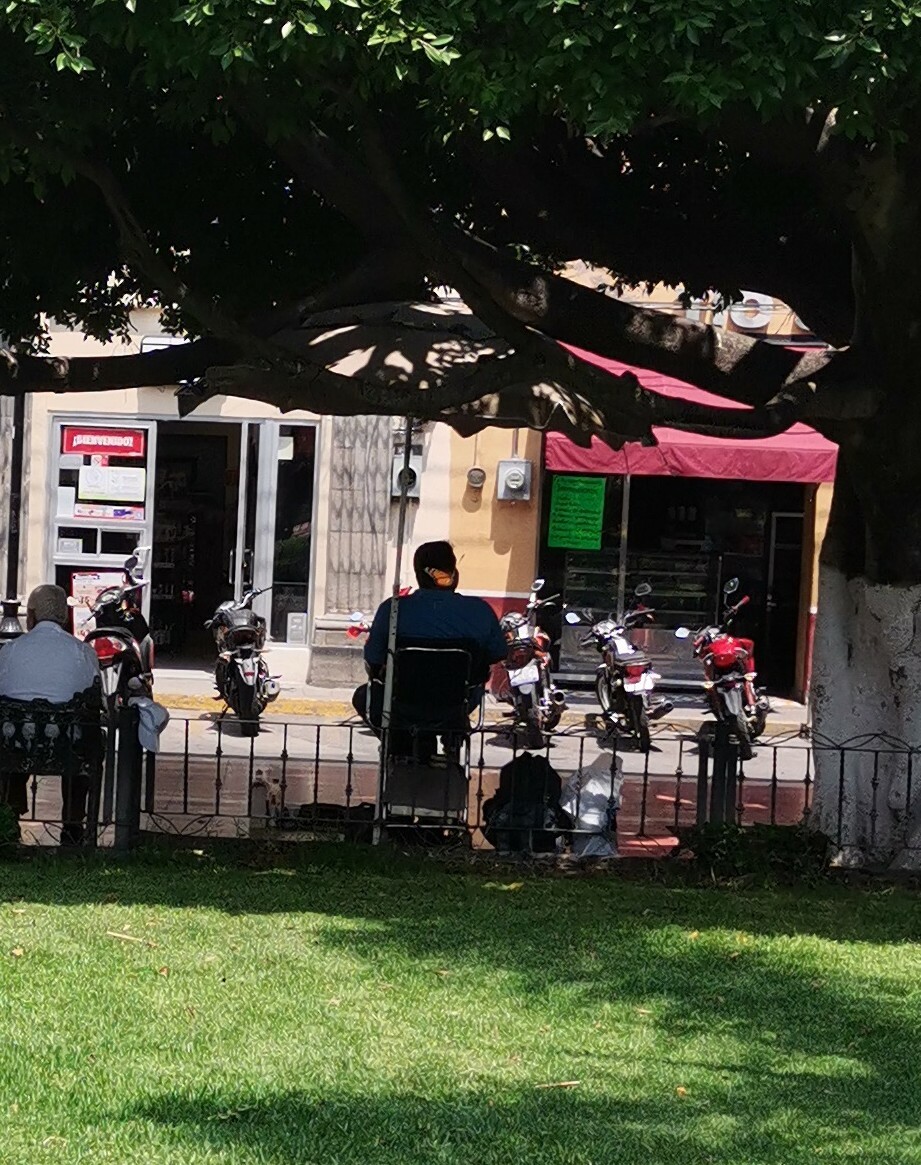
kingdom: Animalia
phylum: Arthropoda
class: Insecta
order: Lepidoptera
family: Nymphalidae
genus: Danaus
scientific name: Danaus plexippus
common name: Monarch
